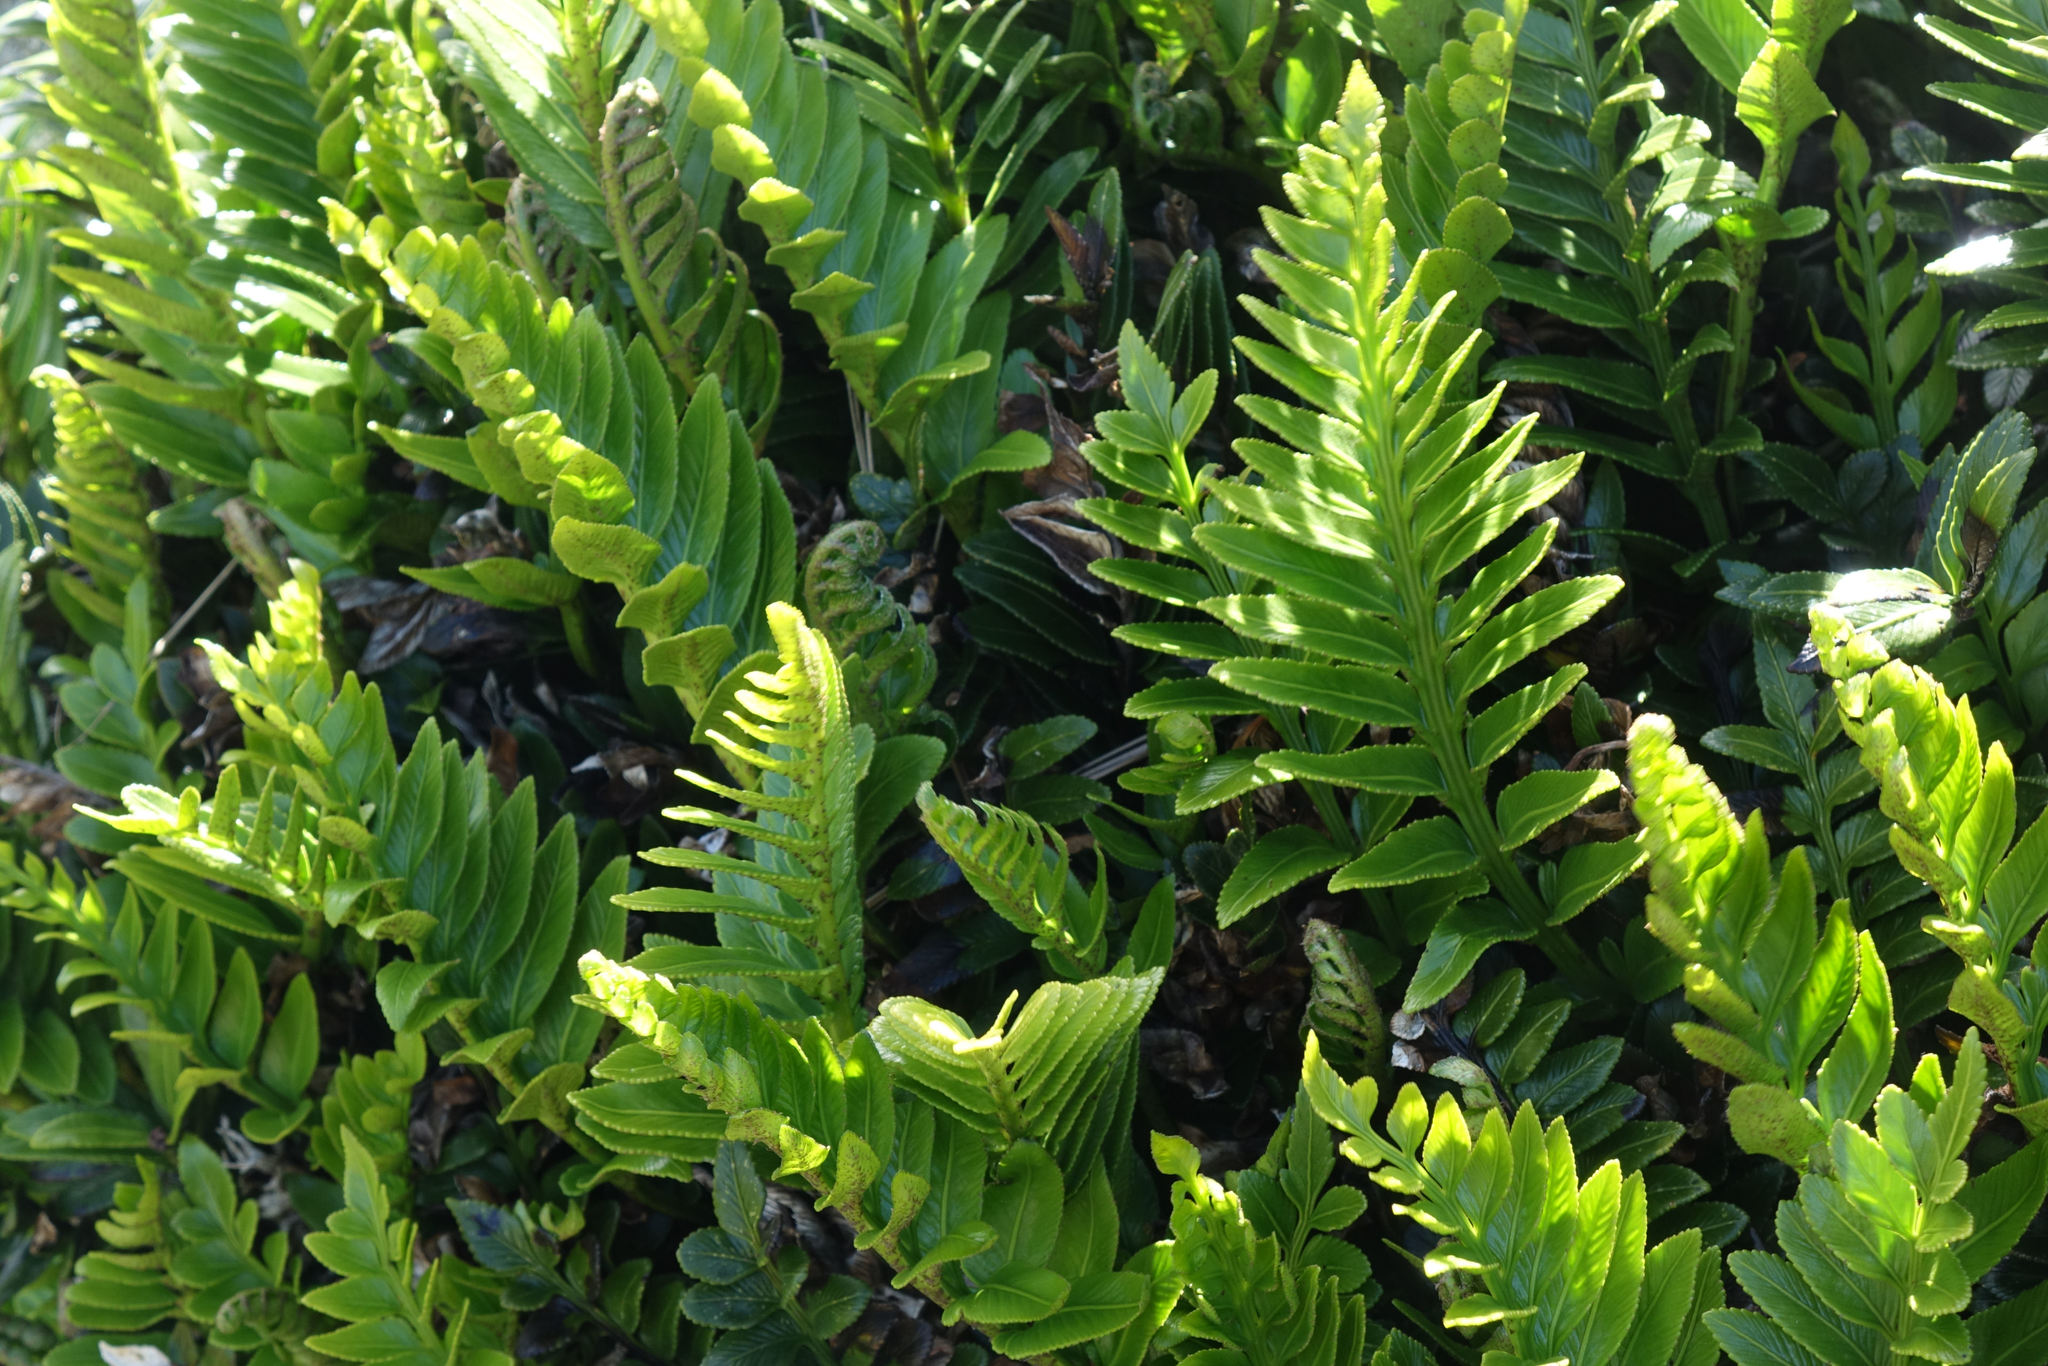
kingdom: Plantae
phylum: Tracheophyta
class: Polypodiopsida
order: Polypodiales
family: Aspleniaceae
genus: Asplenium
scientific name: Asplenium obtusatum
